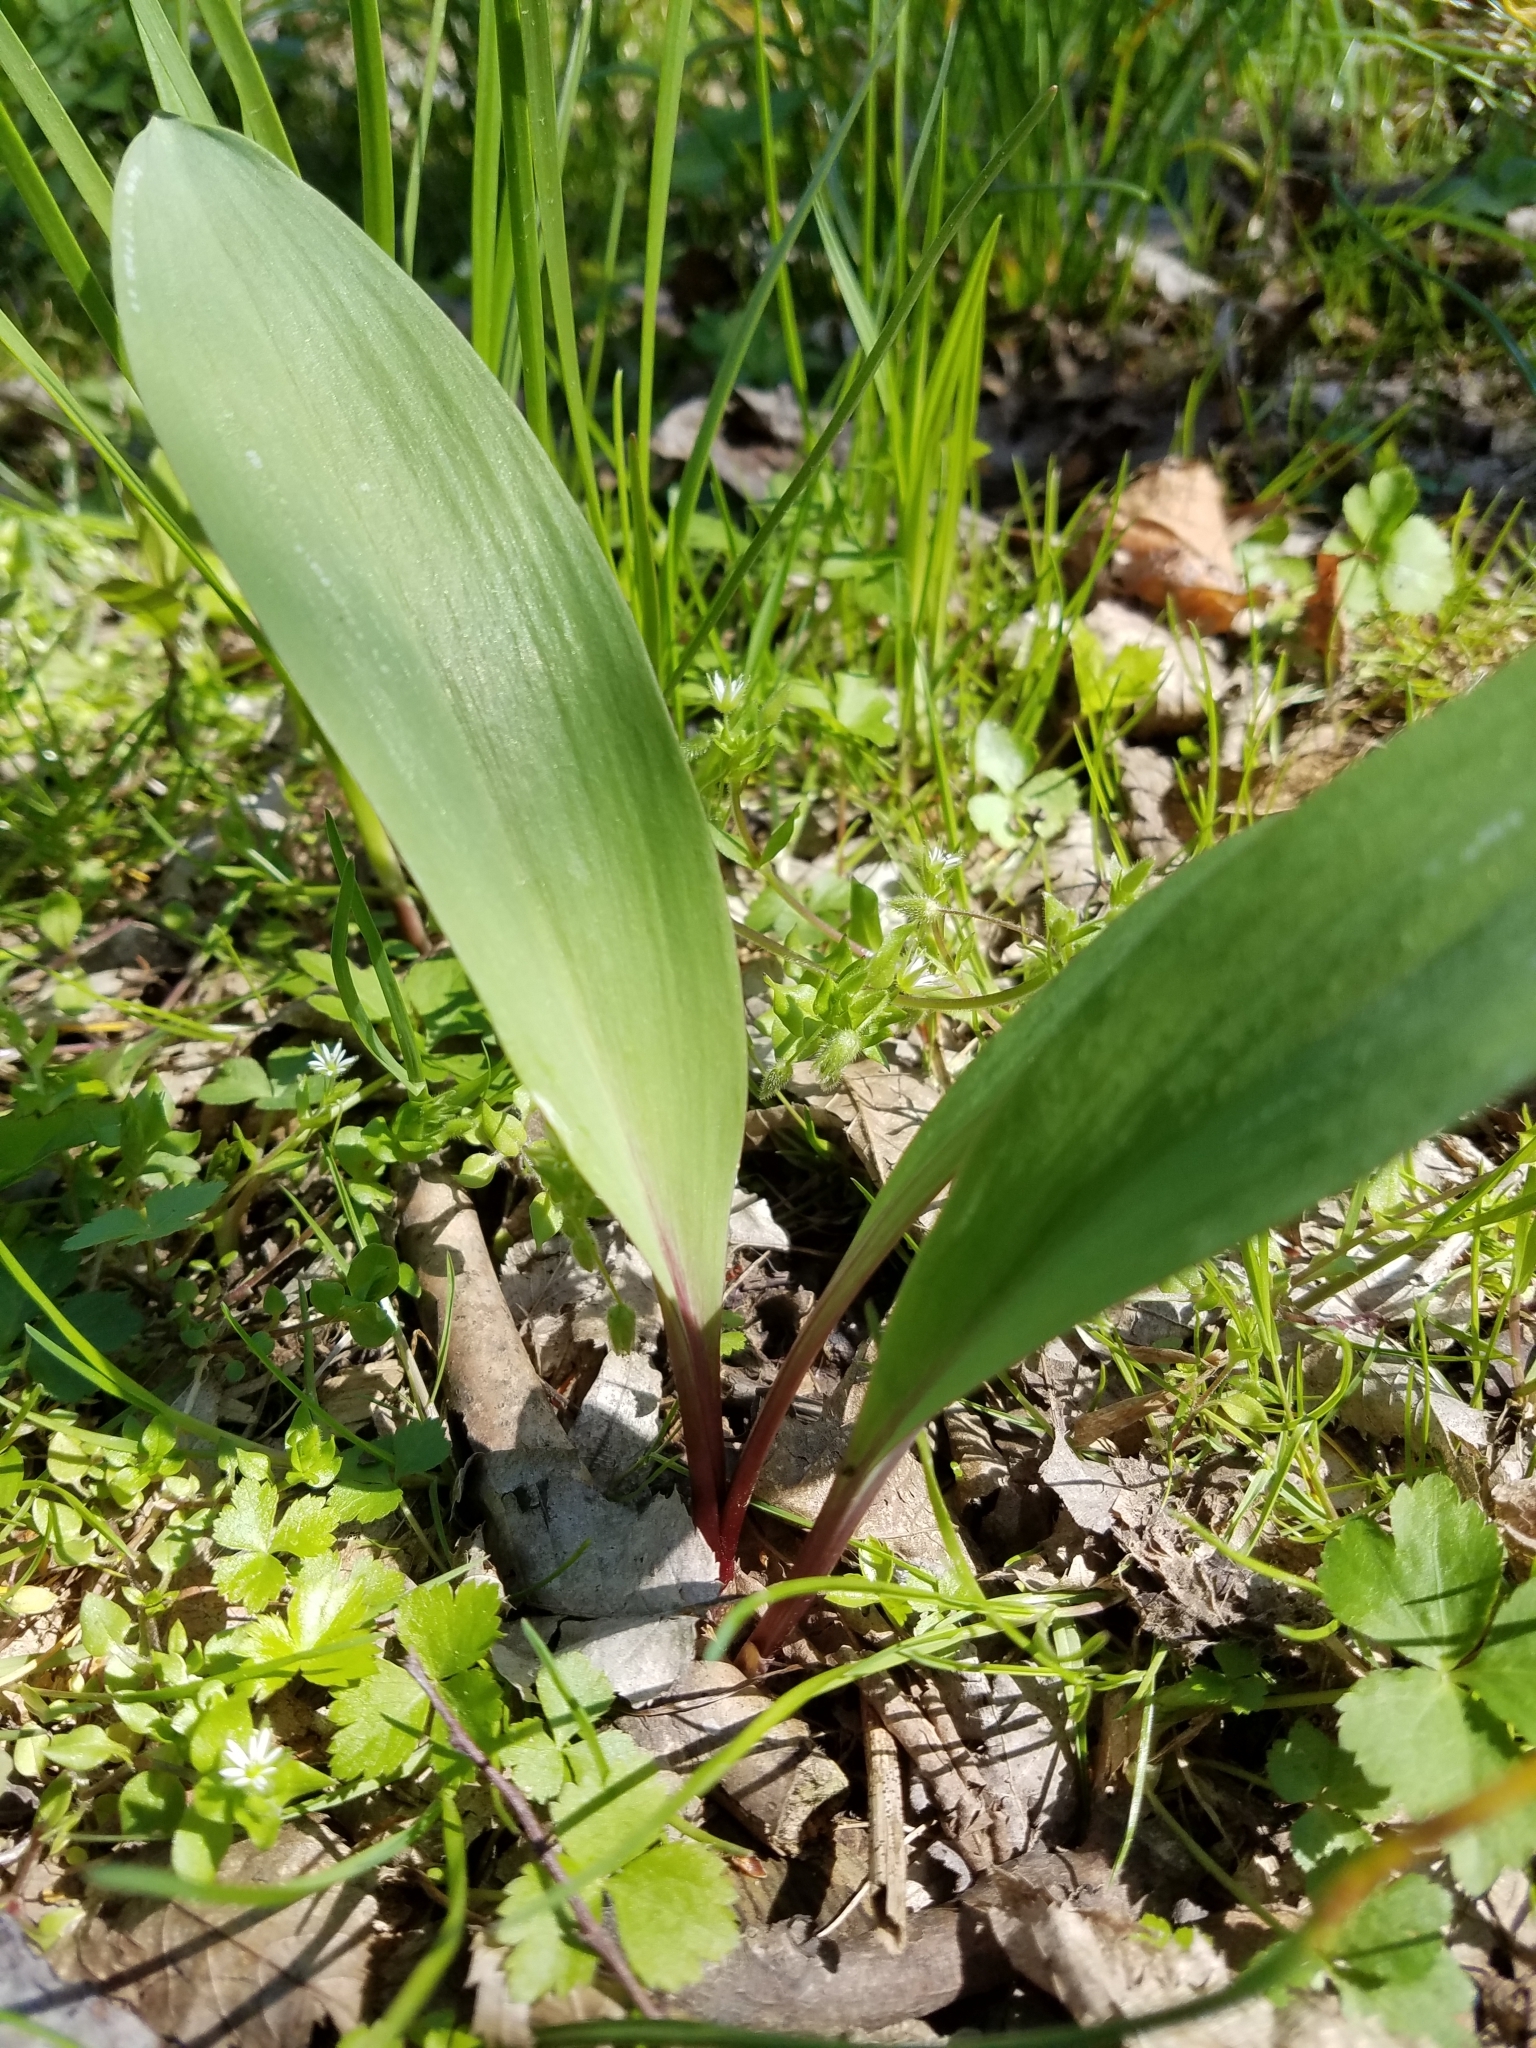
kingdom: Plantae
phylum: Tracheophyta
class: Liliopsida
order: Asparagales
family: Amaryllidaceae
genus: Allium
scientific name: Allium tricoccum
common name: Ramp
